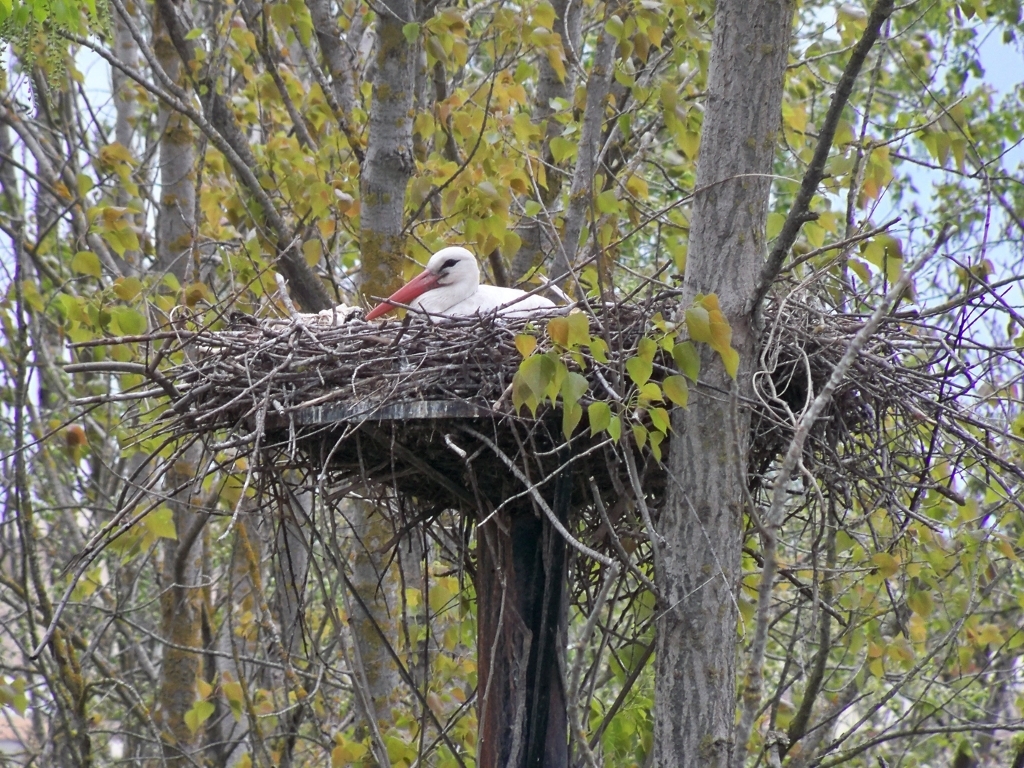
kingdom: Animalia
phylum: Chordata
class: Aves
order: Ciconiiformes
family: Ciconiidae
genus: Ciconia
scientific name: Ciconia ciconia
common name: White stork
